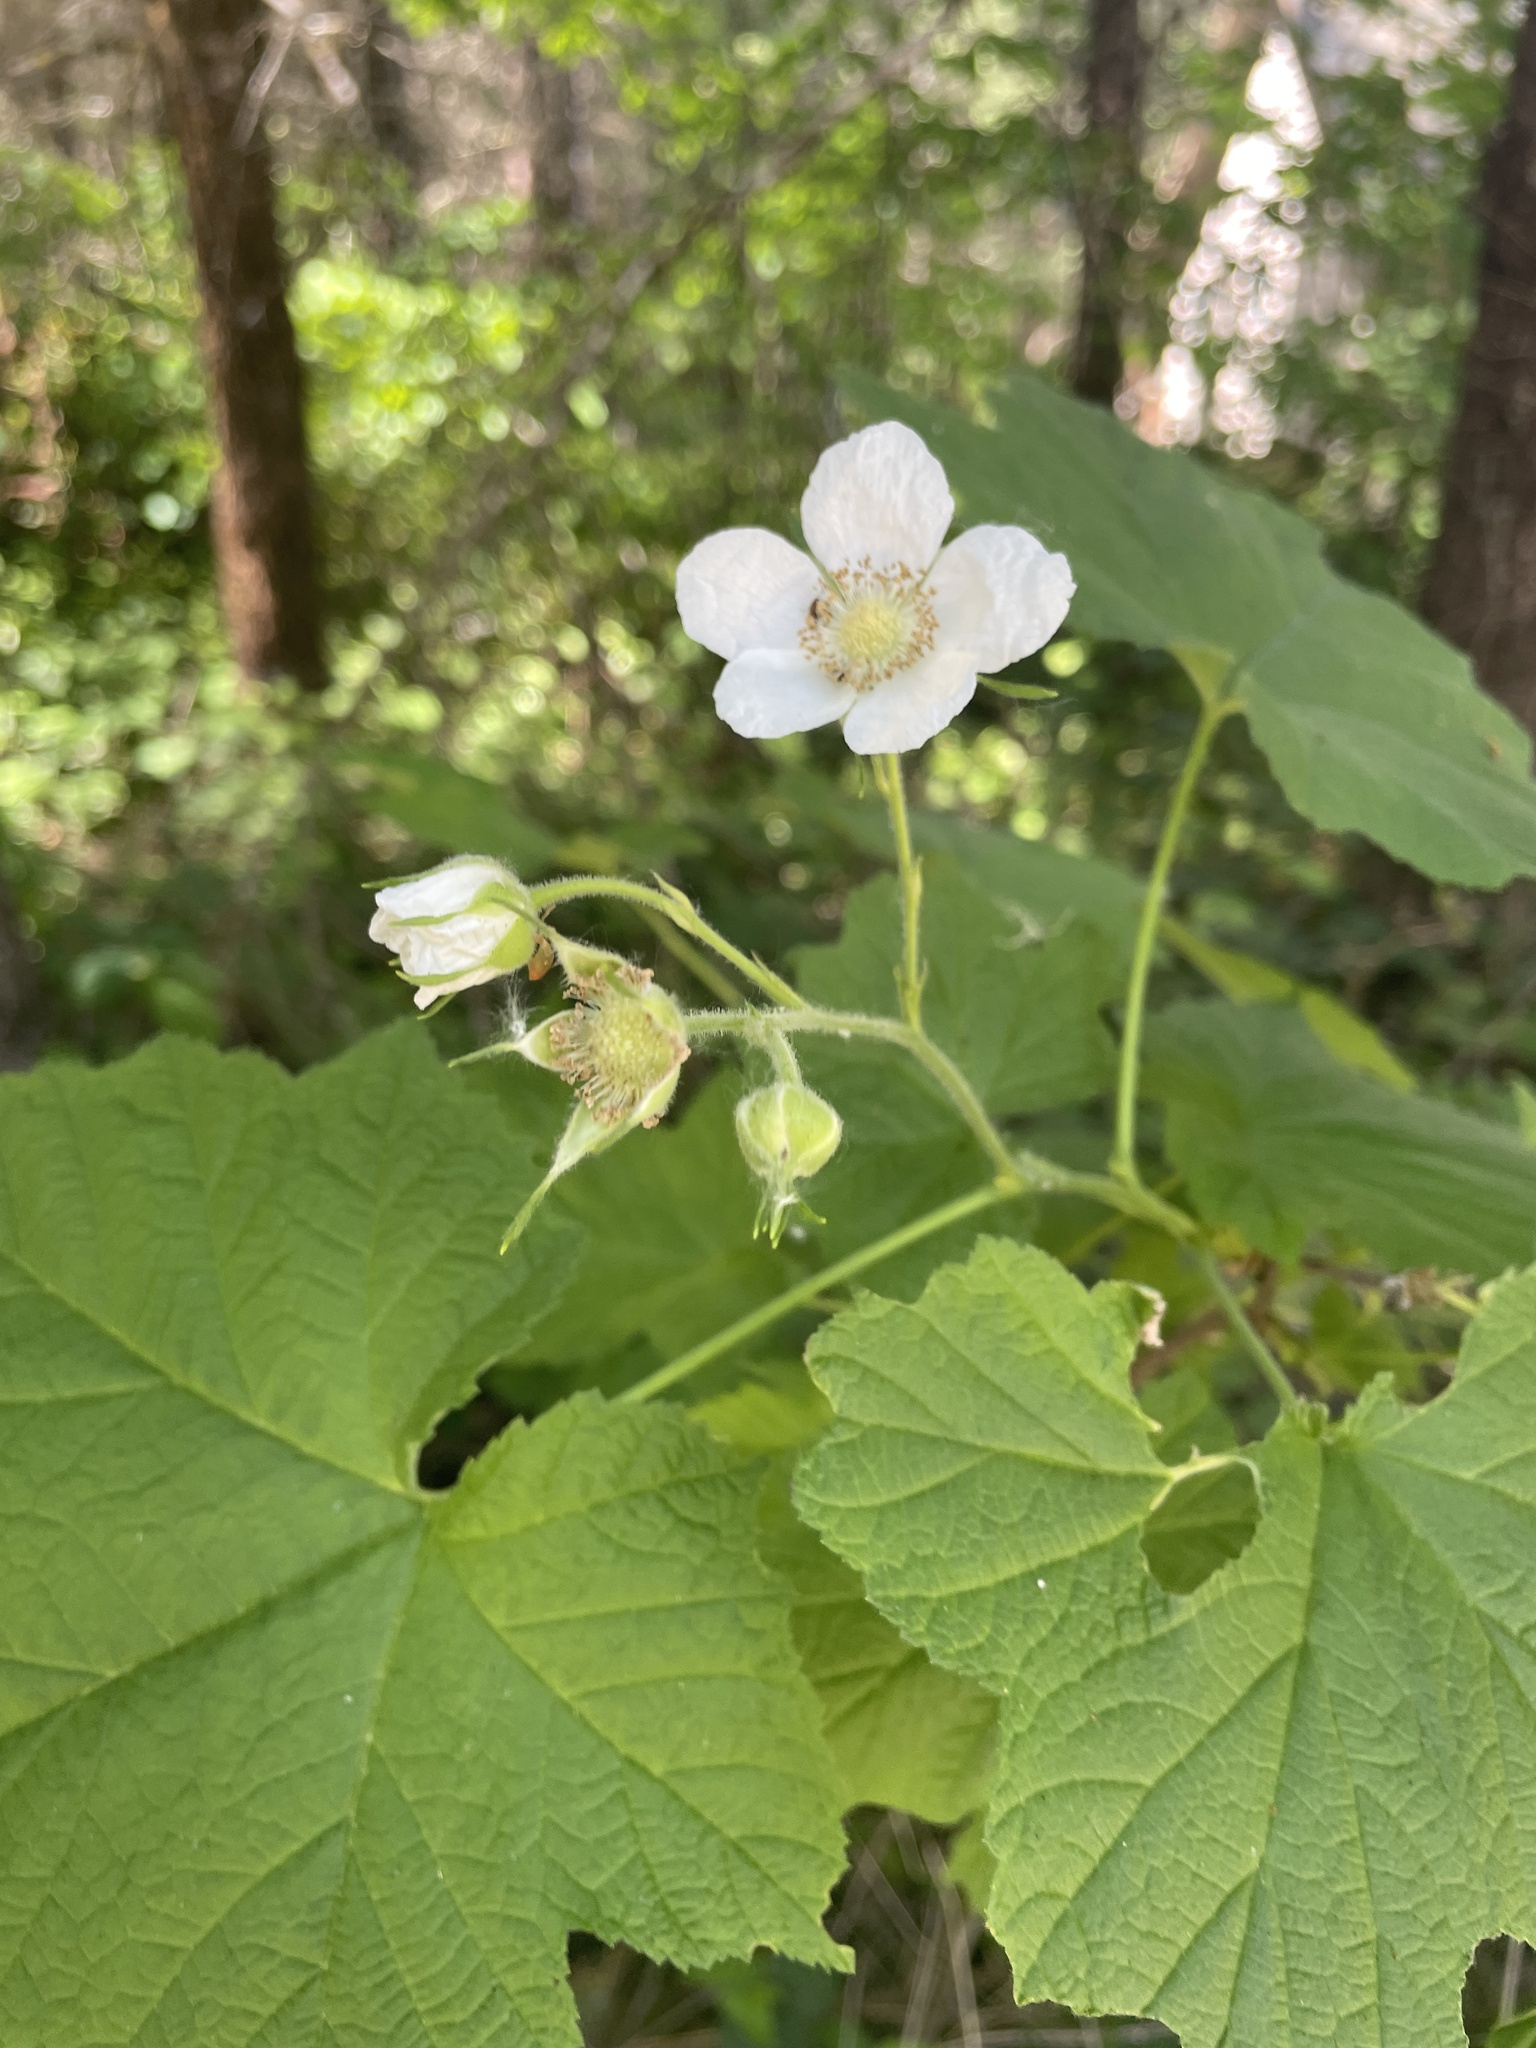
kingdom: Plantae
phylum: Tracheophyta
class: Magnoliopsida
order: Rosales
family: Rosaceae
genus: Rubus
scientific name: Rubus parviflorus
